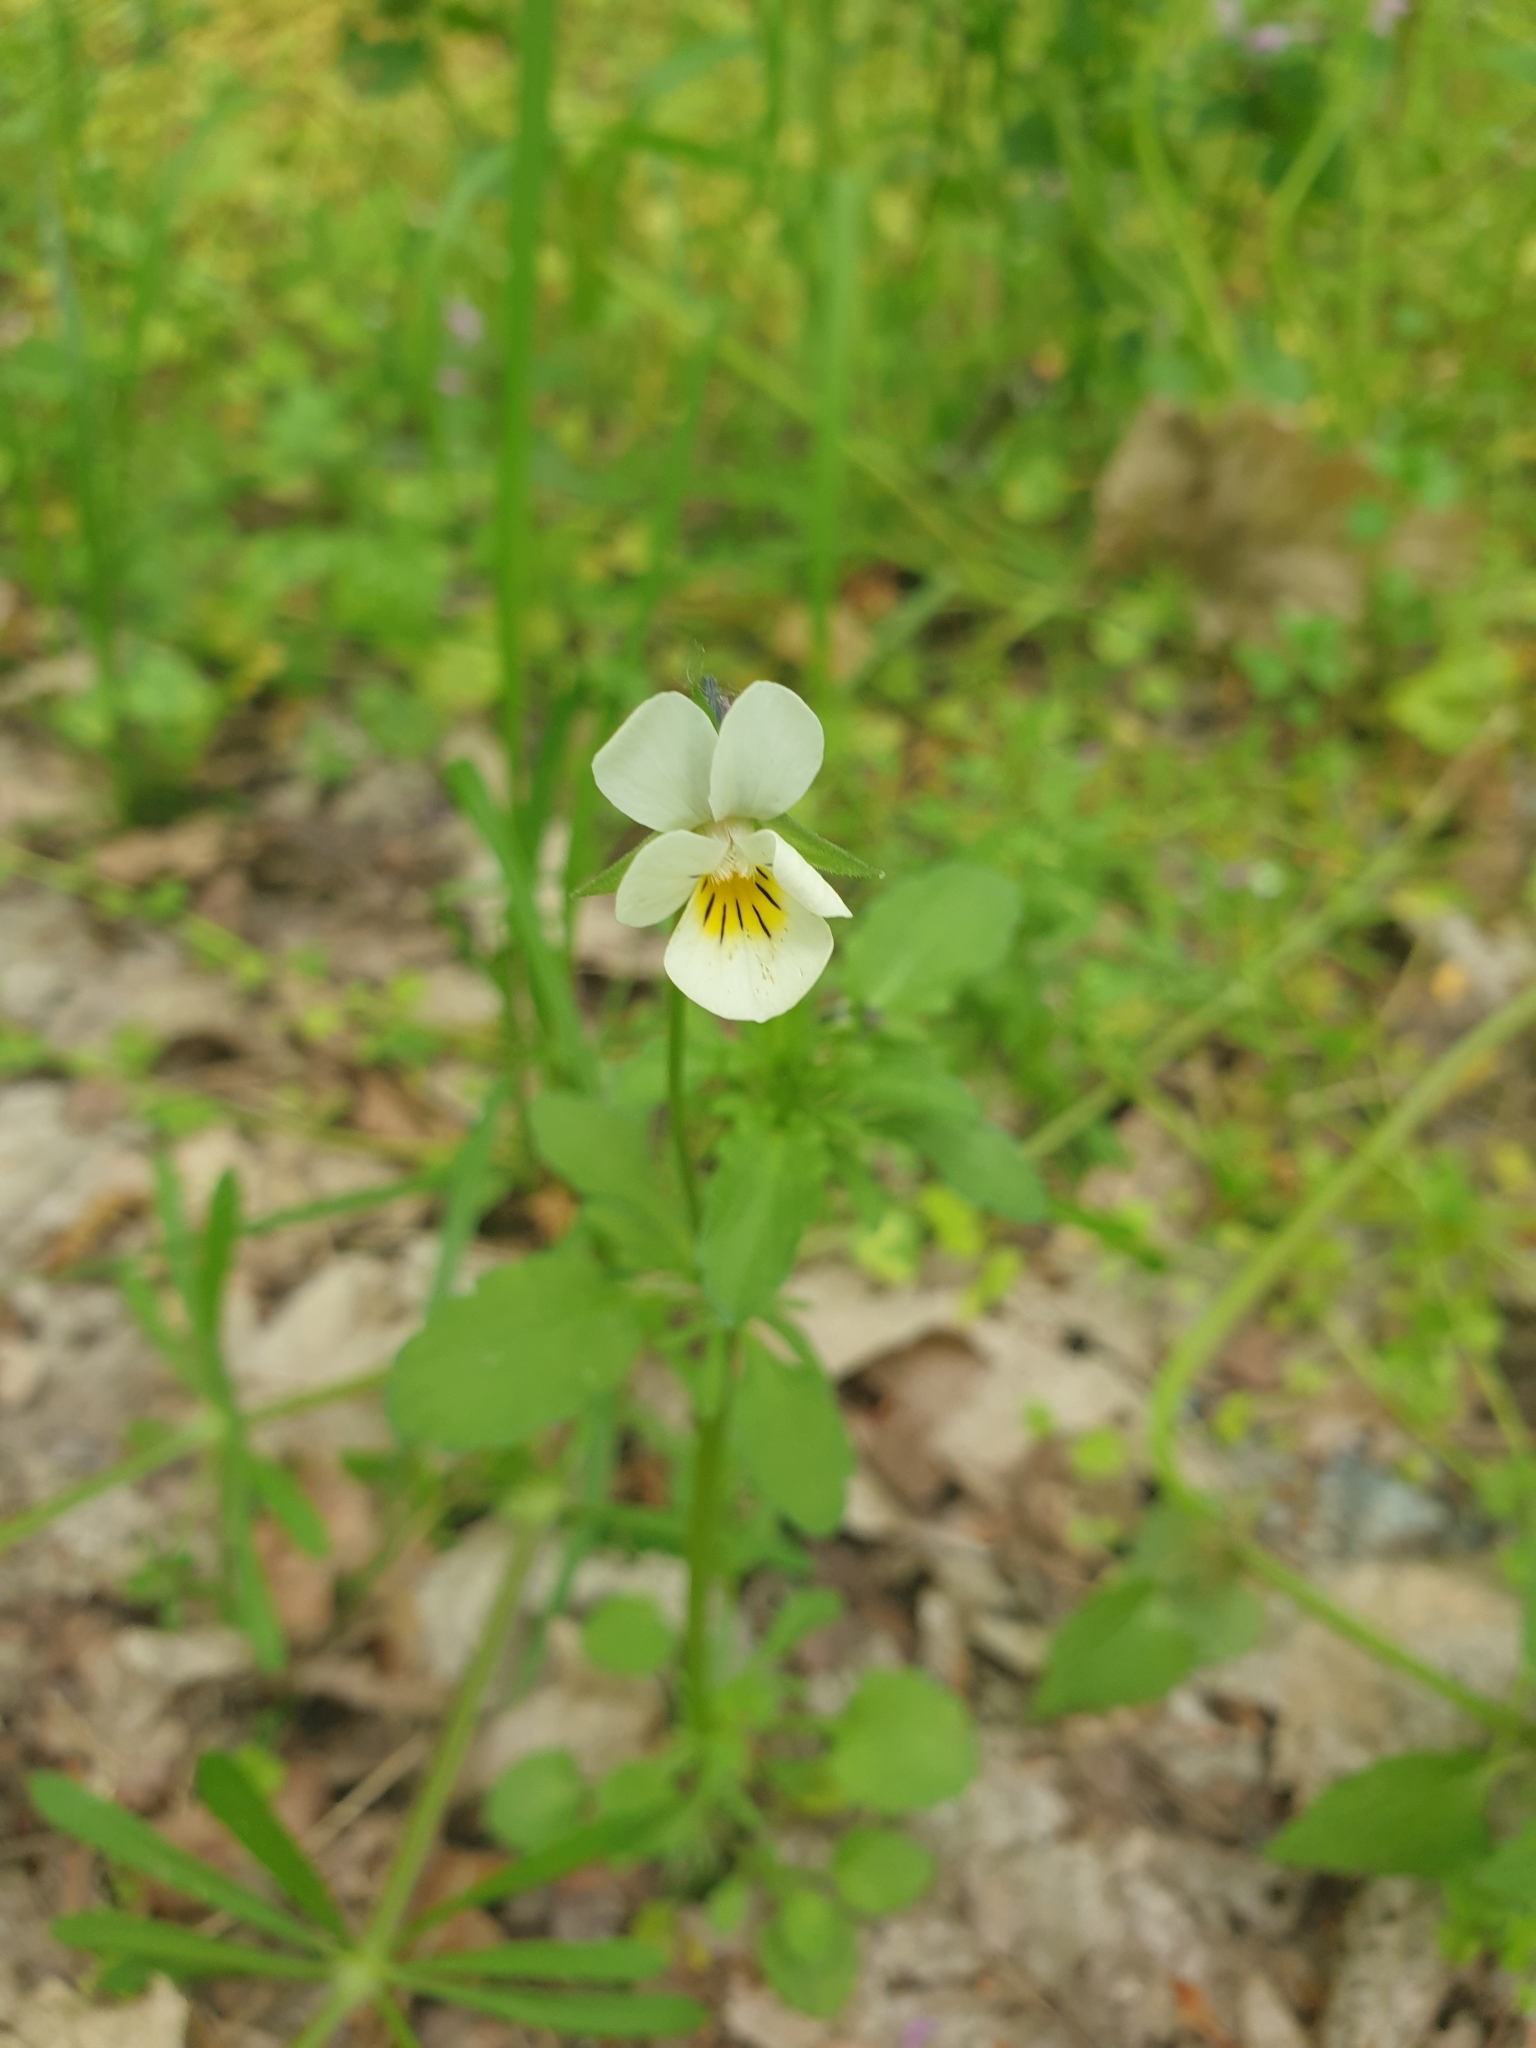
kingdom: Plantae
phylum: Tracheophyta
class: Magnoliopsida
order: Malpighiales
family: Violaceae
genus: Viola
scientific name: Viola arvensis
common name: Field pansy
